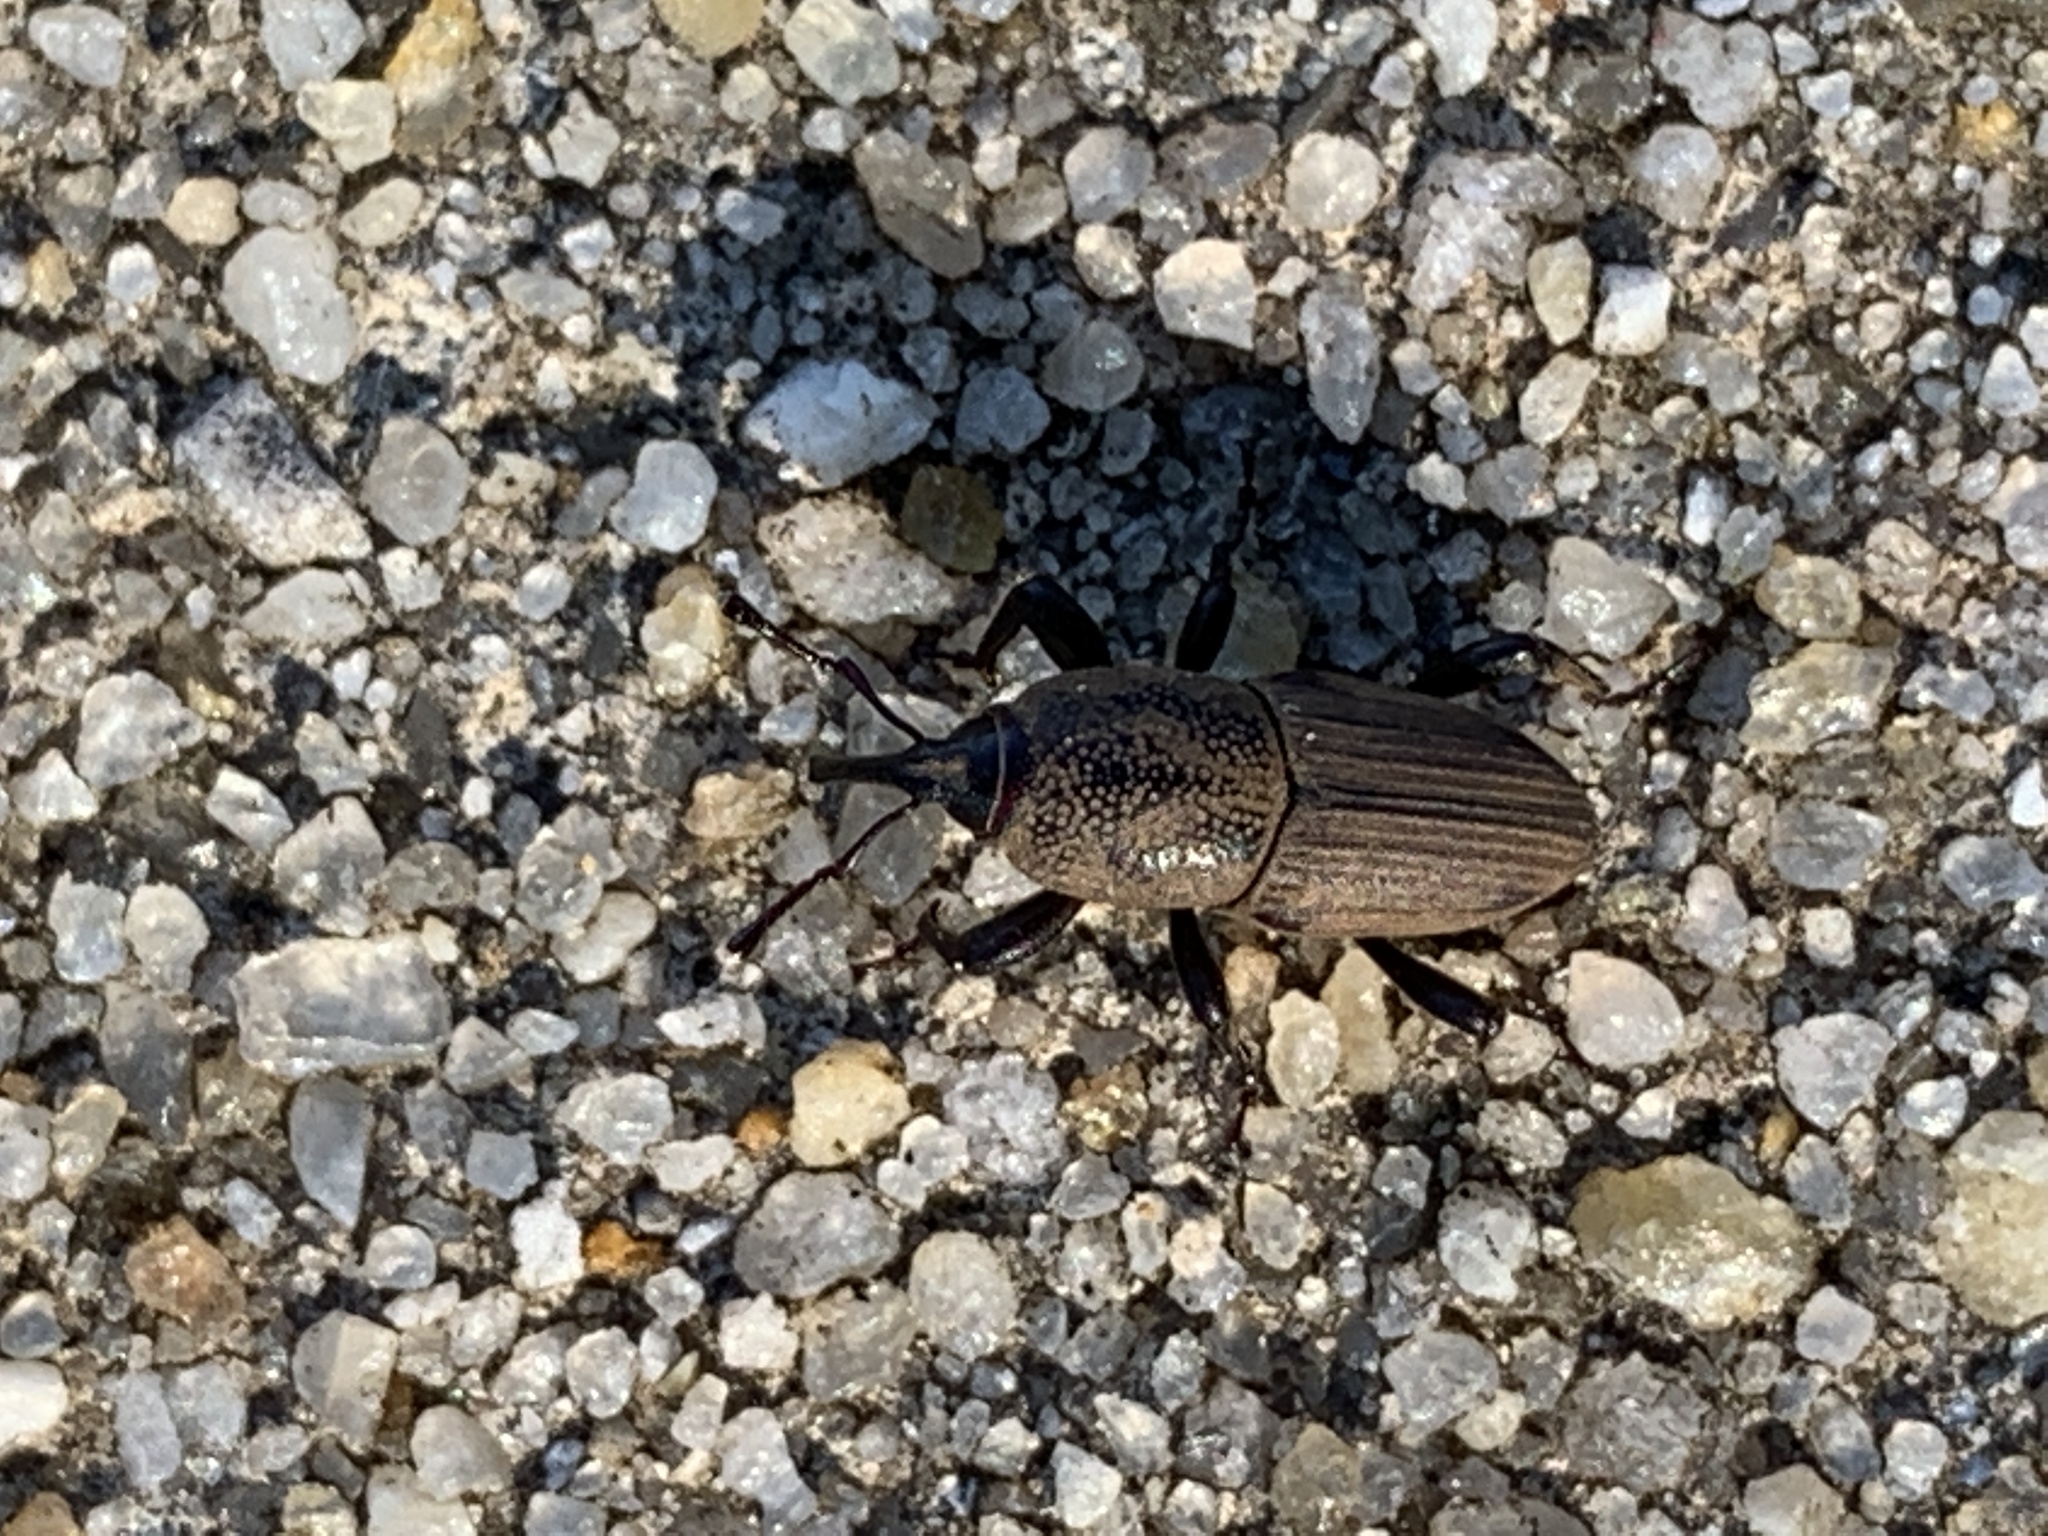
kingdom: Animalia
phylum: Arthropoda
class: Insecta
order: Coleoptera
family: Dryophthoridae
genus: Sphenophorus
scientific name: Sphenophorus coesifrons
